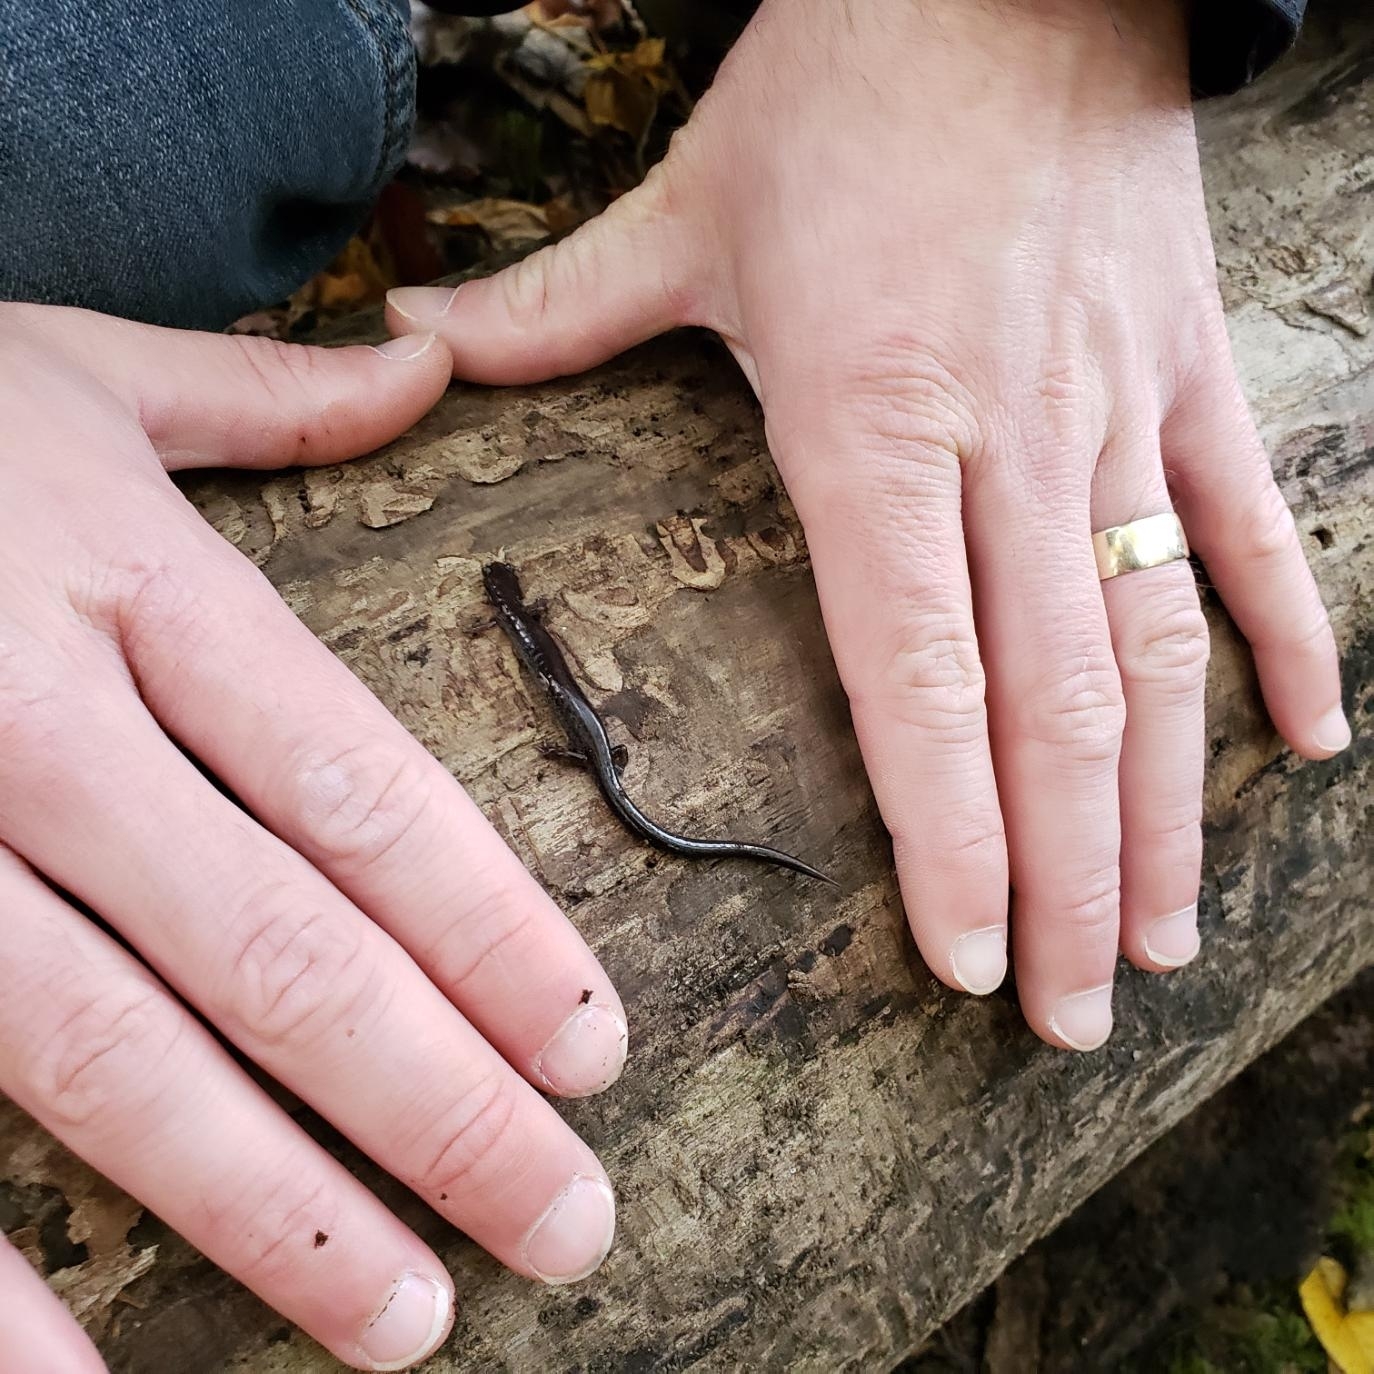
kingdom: Animalia
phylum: Chordata
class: Amphibia
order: Caudata
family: Plethodontidae
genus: Plethodon
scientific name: Plethodon electromorphus
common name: Northern ravine salamander
